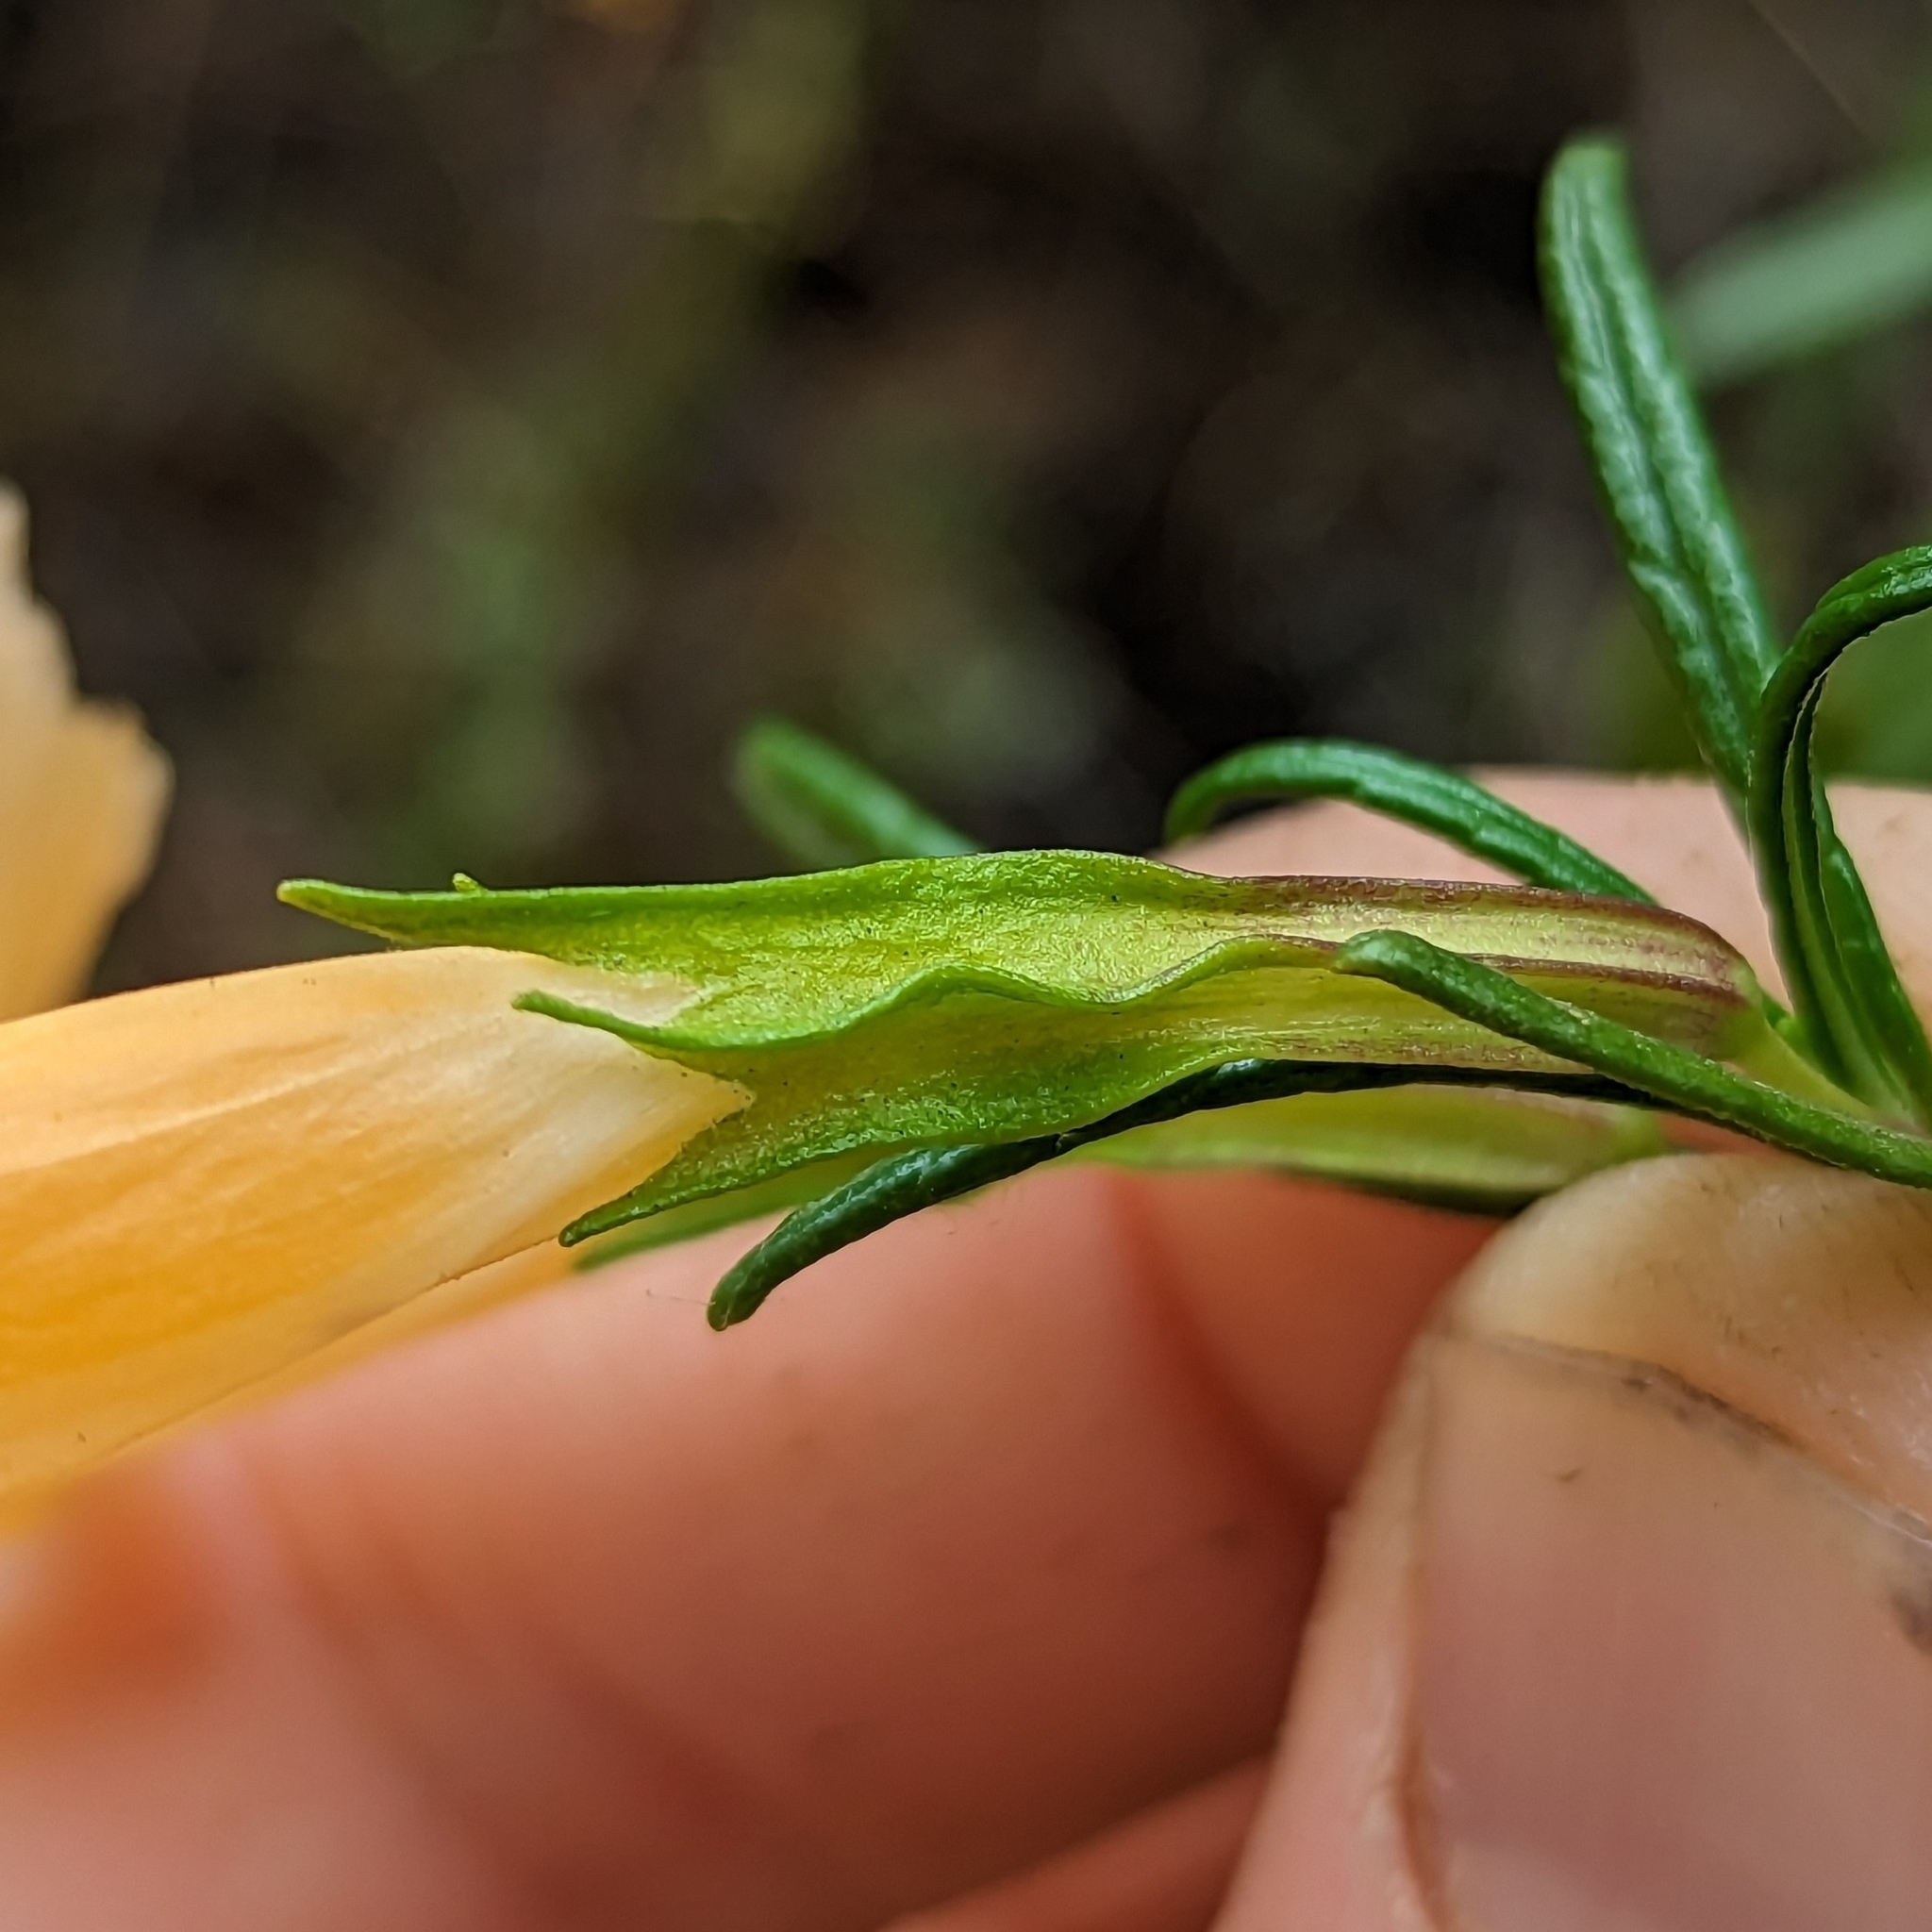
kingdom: Plantae
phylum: Tracheophyta
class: Magnoliopsida
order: Lamiales
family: Phrymaceae
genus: Diplacus
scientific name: Diplacus australis
